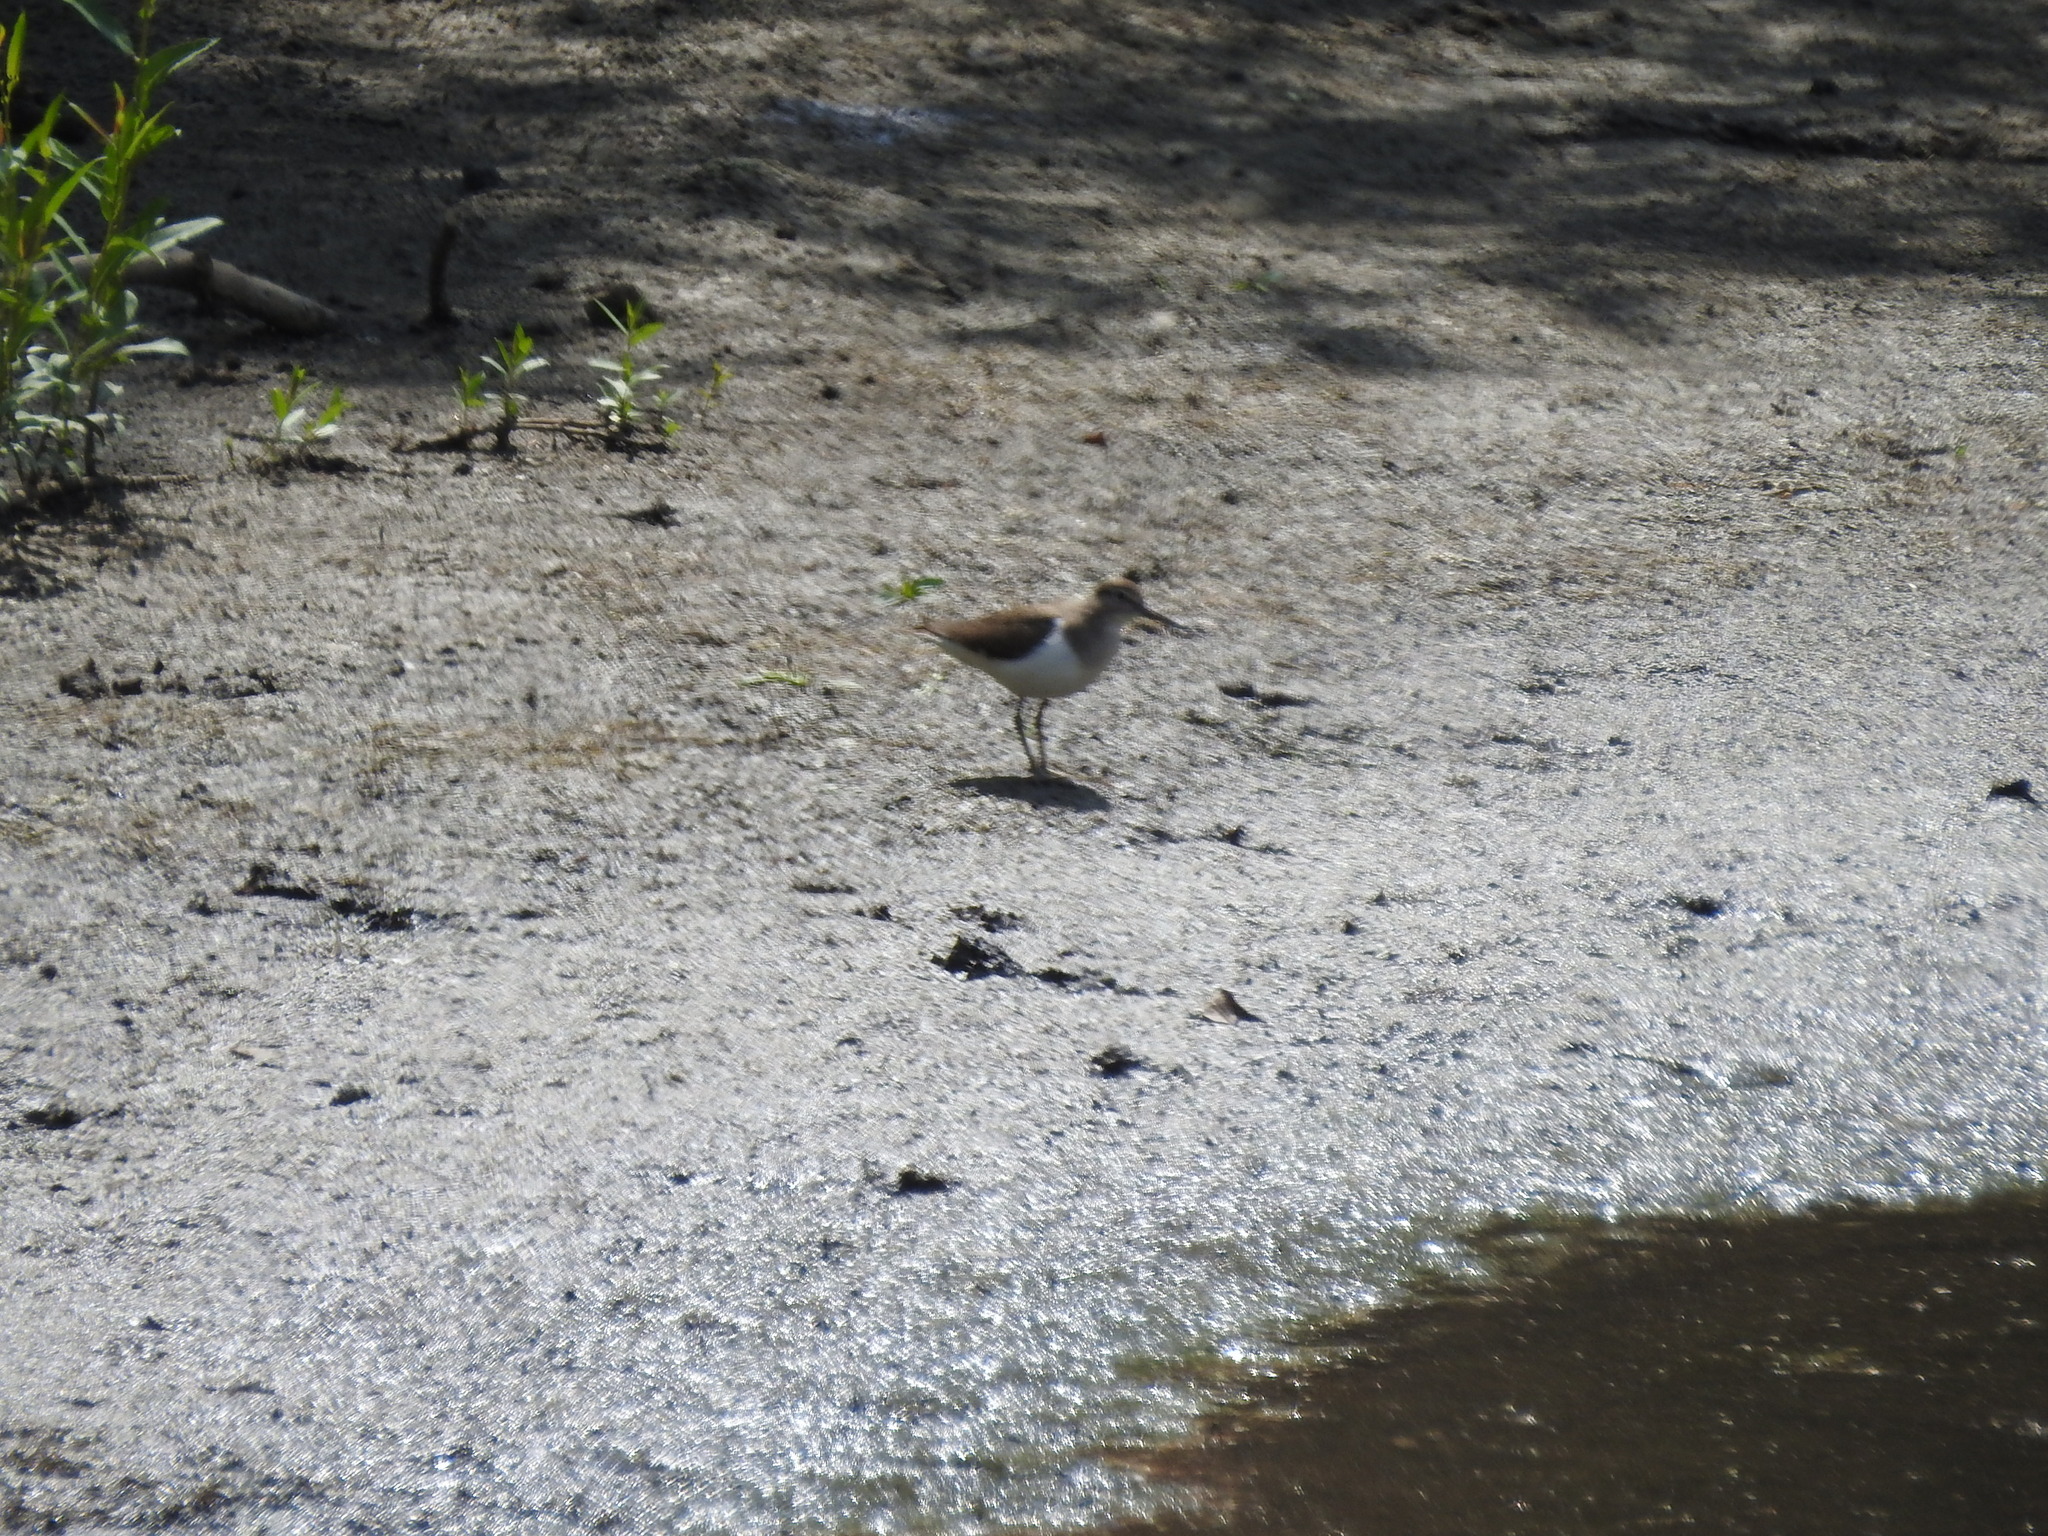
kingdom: Animalia
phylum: Chordata
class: Aves
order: Charadriiformes
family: Scolopacidae
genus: Actitis
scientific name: Actitis hypoleucos
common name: Common sandpiper
